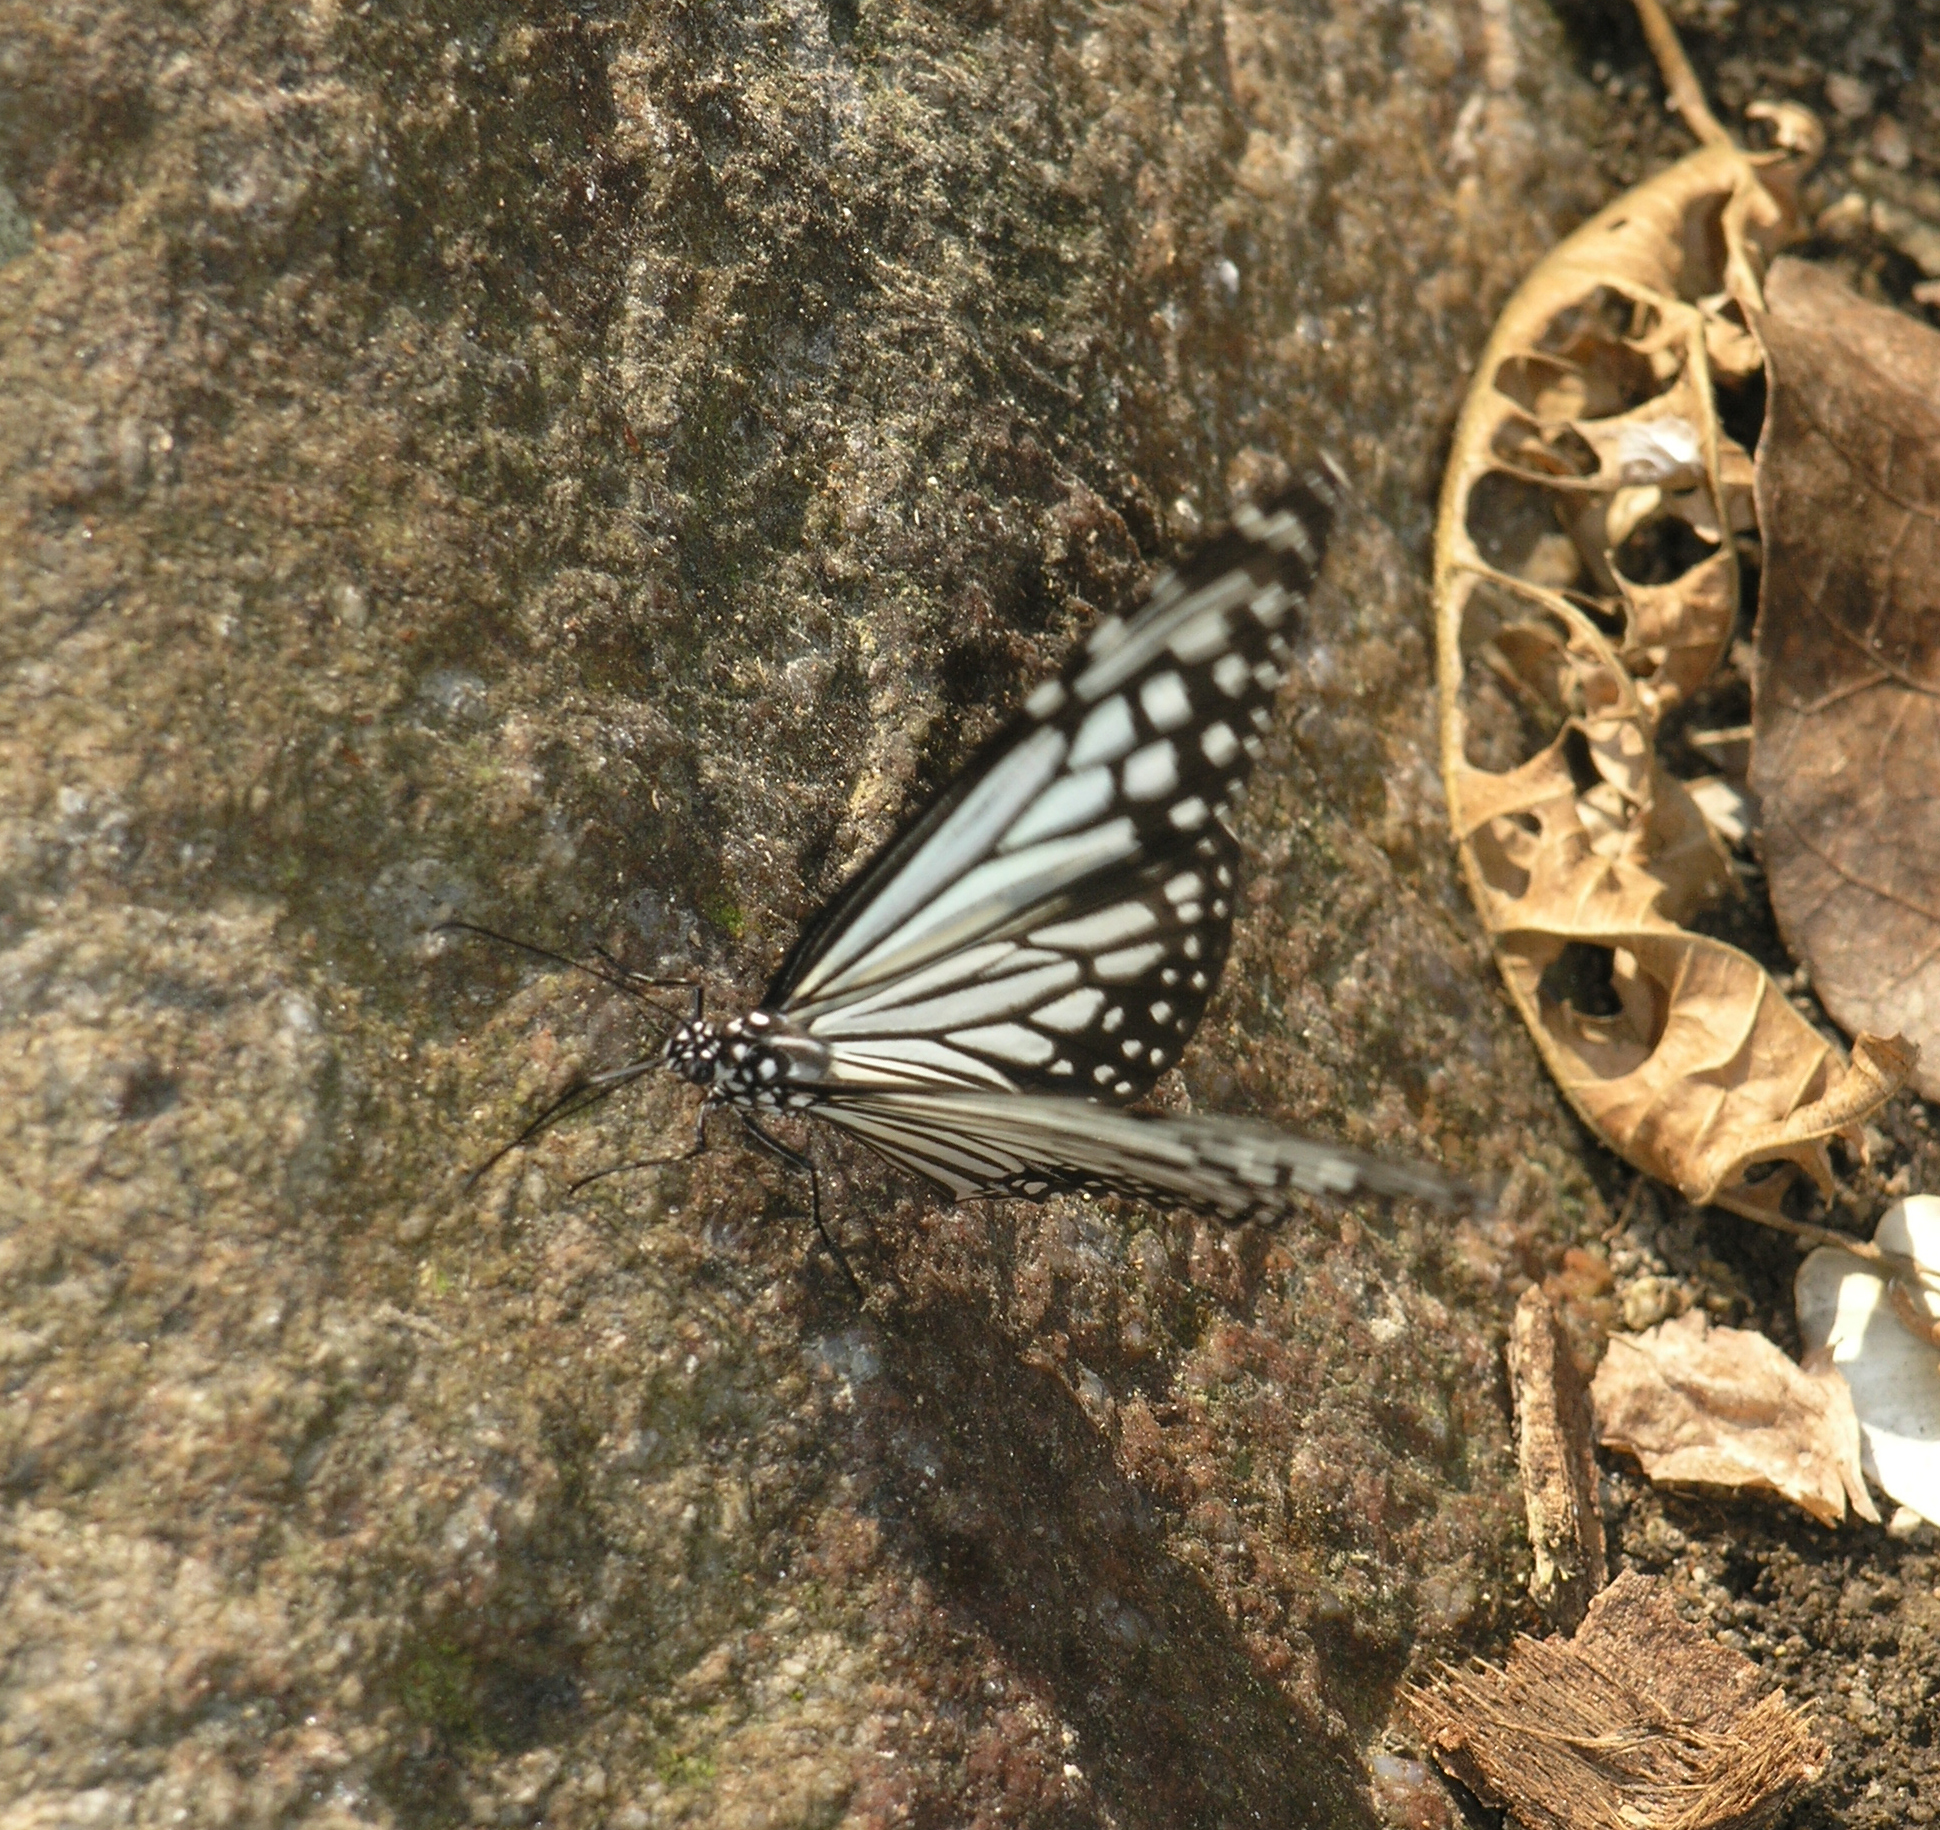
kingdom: Animalia
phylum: Arthropoda
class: Insecta
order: Lepidoptera
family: Nymphalidae
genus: Parantica
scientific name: Parantica aglea
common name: Glassy tiger
